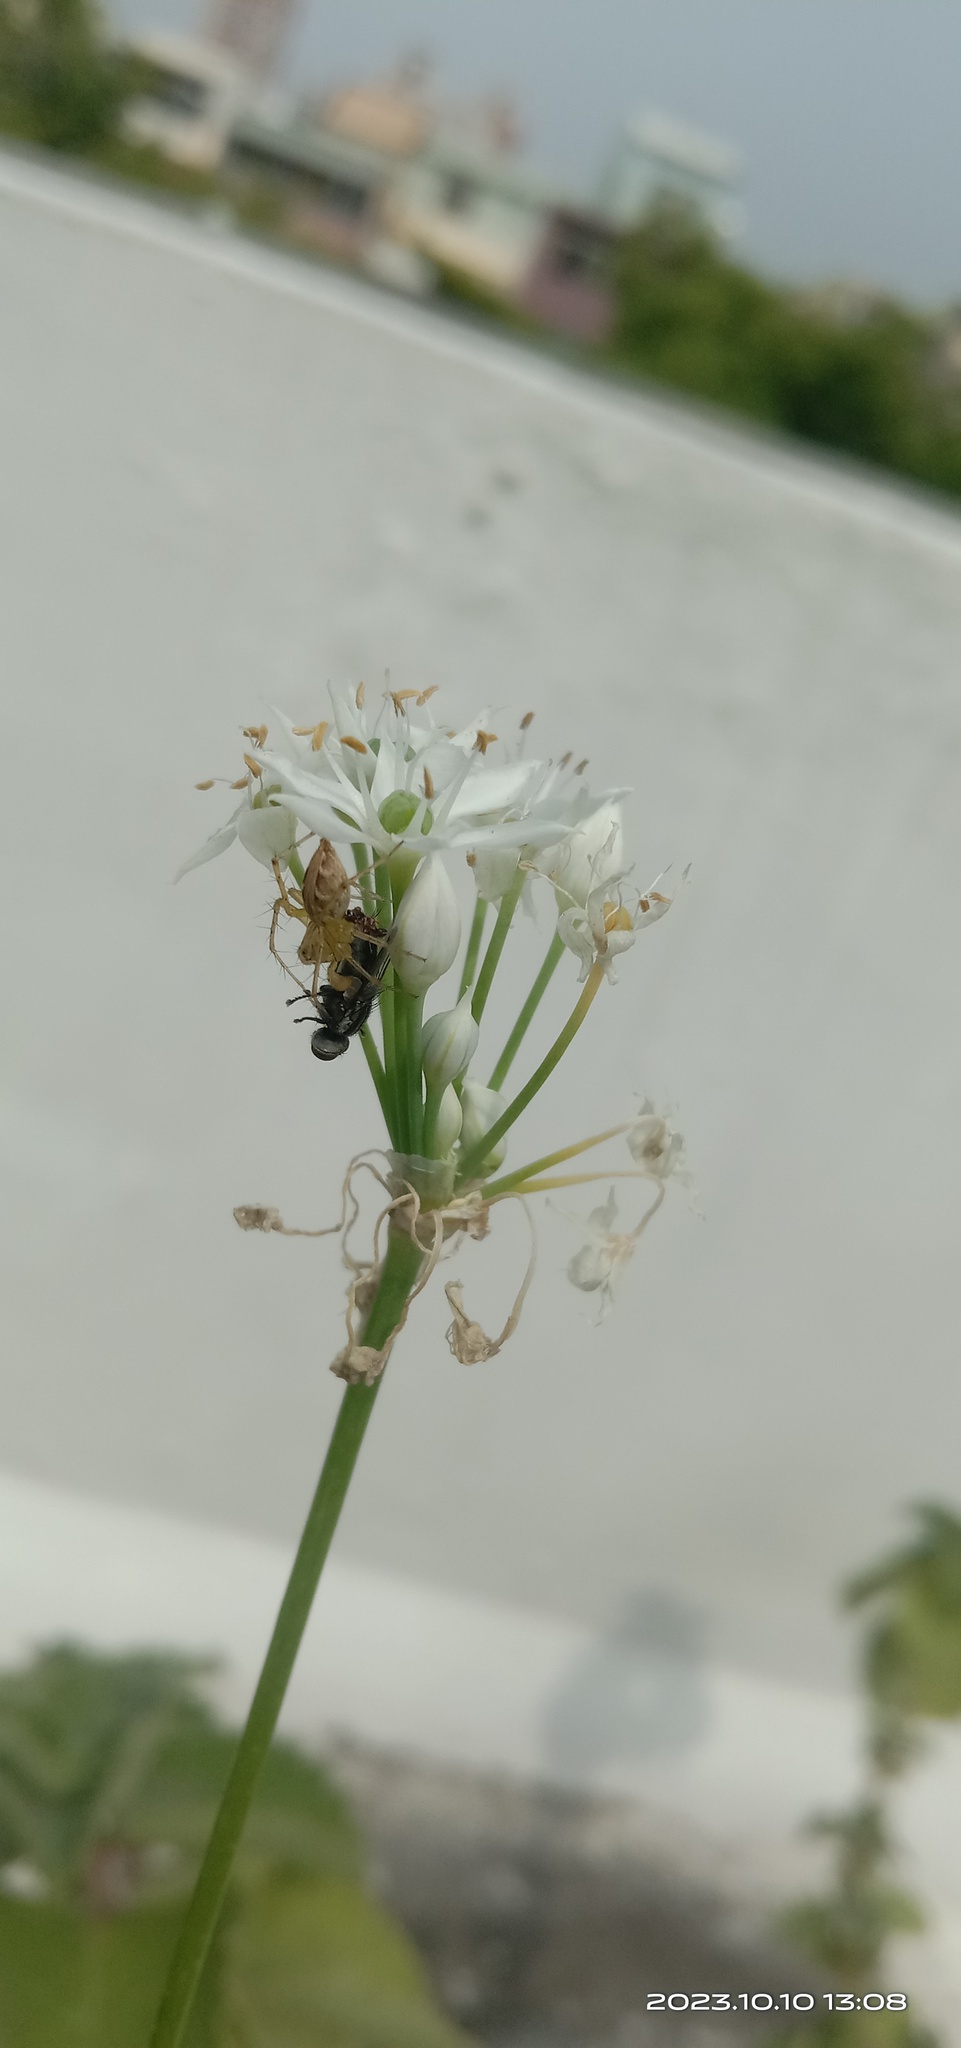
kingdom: Animalia
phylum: Arthropoda
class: Arachnida
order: Araneae
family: Oxyopidae
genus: Oxyopes
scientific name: Oxyopes sertatus
